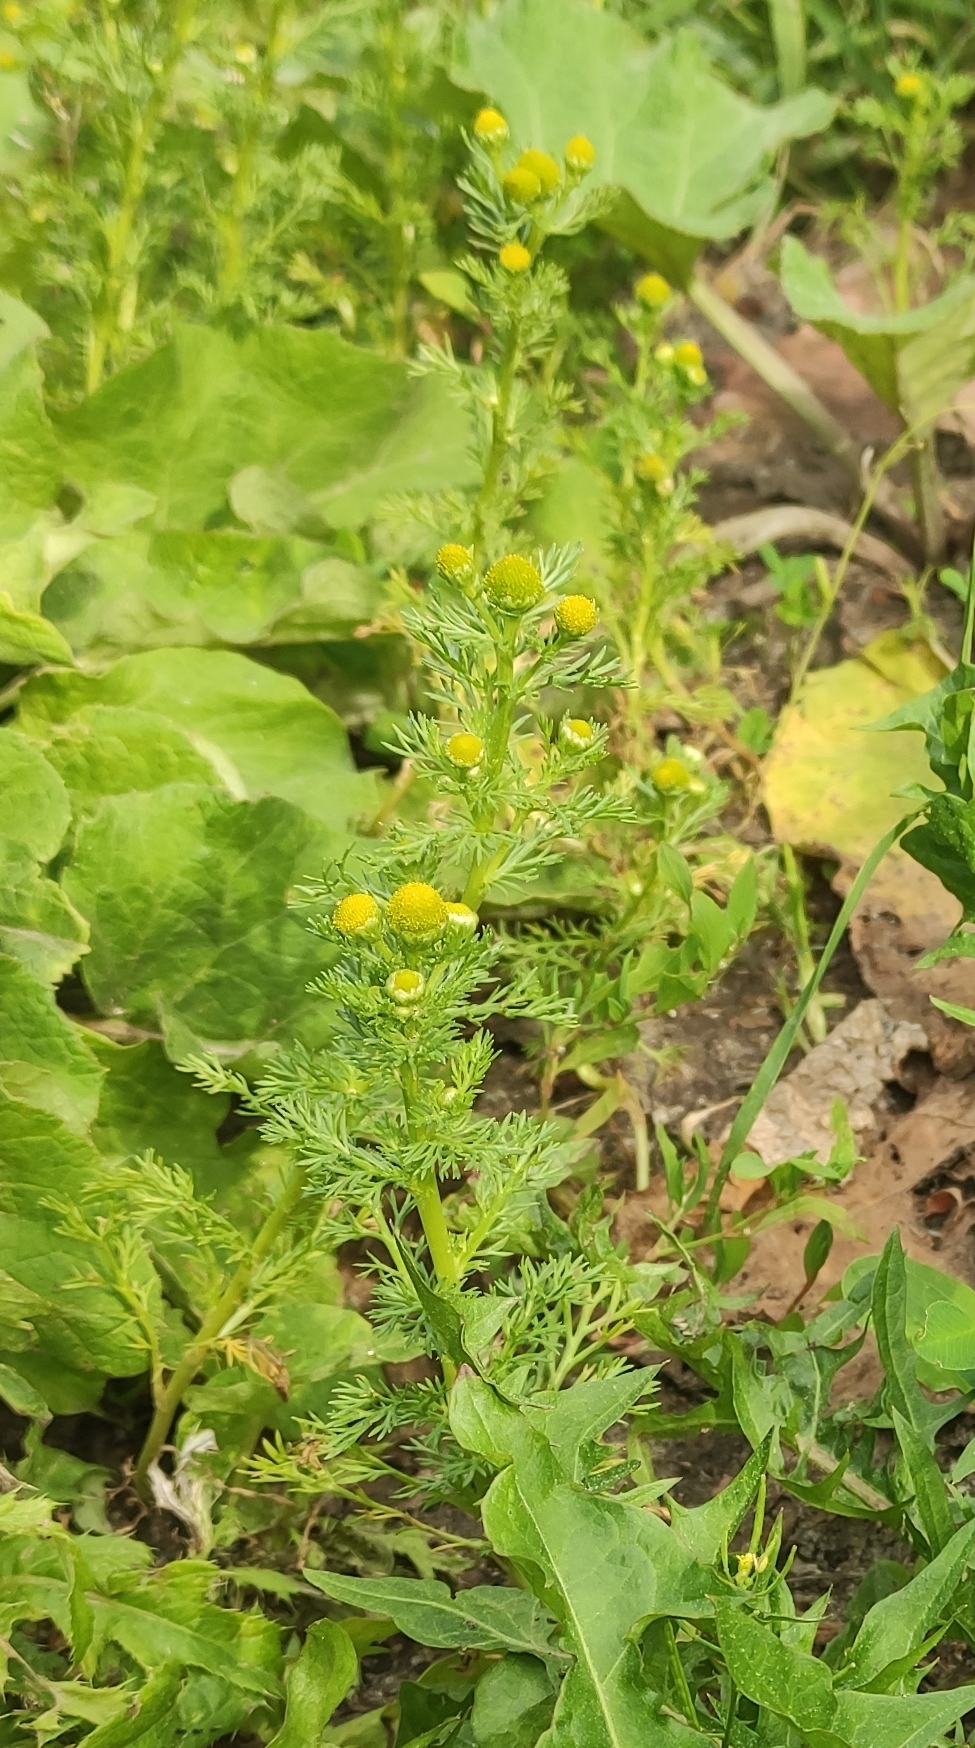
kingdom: Plantae
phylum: Tracheophyta
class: Magnoliopsida
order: Asterales
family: Asteraceae
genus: Matricaria
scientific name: Matricaria discoidea
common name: Disc mayweed
